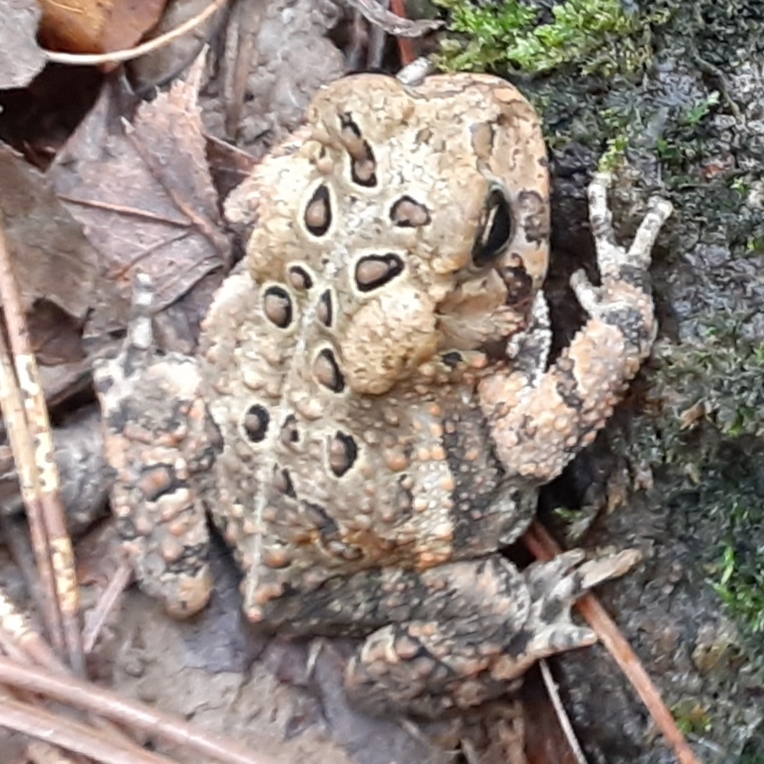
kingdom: Animalia
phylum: Chordata
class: Amphibia
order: Anura
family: Bufonidae
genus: Anaxyrus
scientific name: Anaxyrus americanus
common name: American toad
